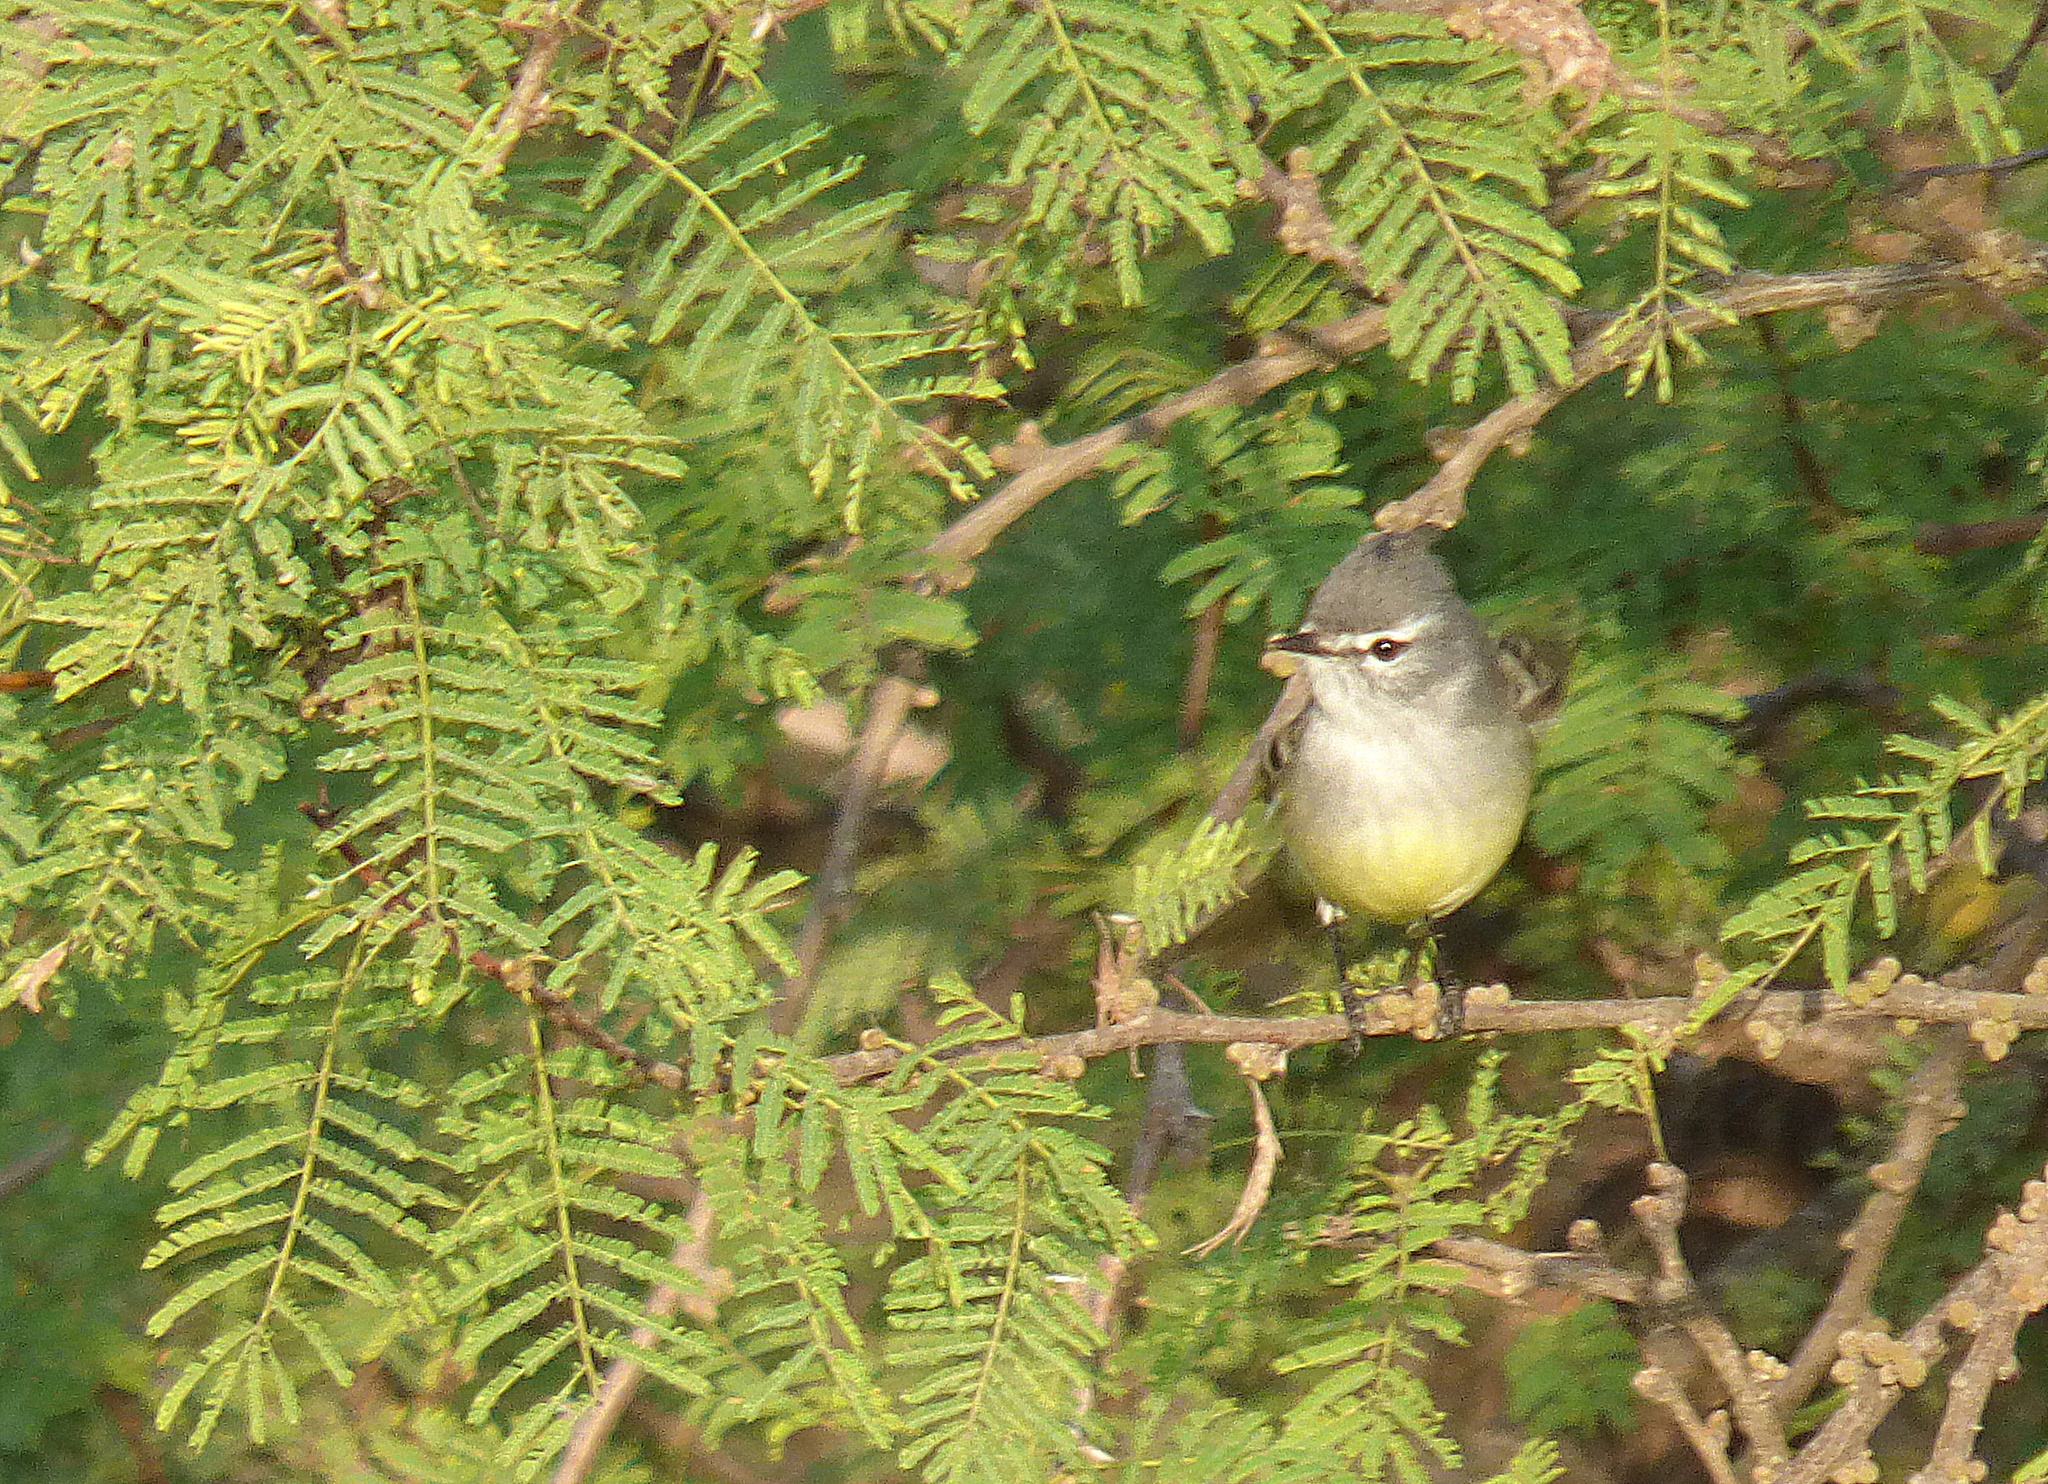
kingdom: Animalia
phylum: Chordata
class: Aves
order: Passeriformes
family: Tyrannidae
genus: Serpophaga
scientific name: Serpophaga griseicapilla
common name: Straneck's tyrannulet
